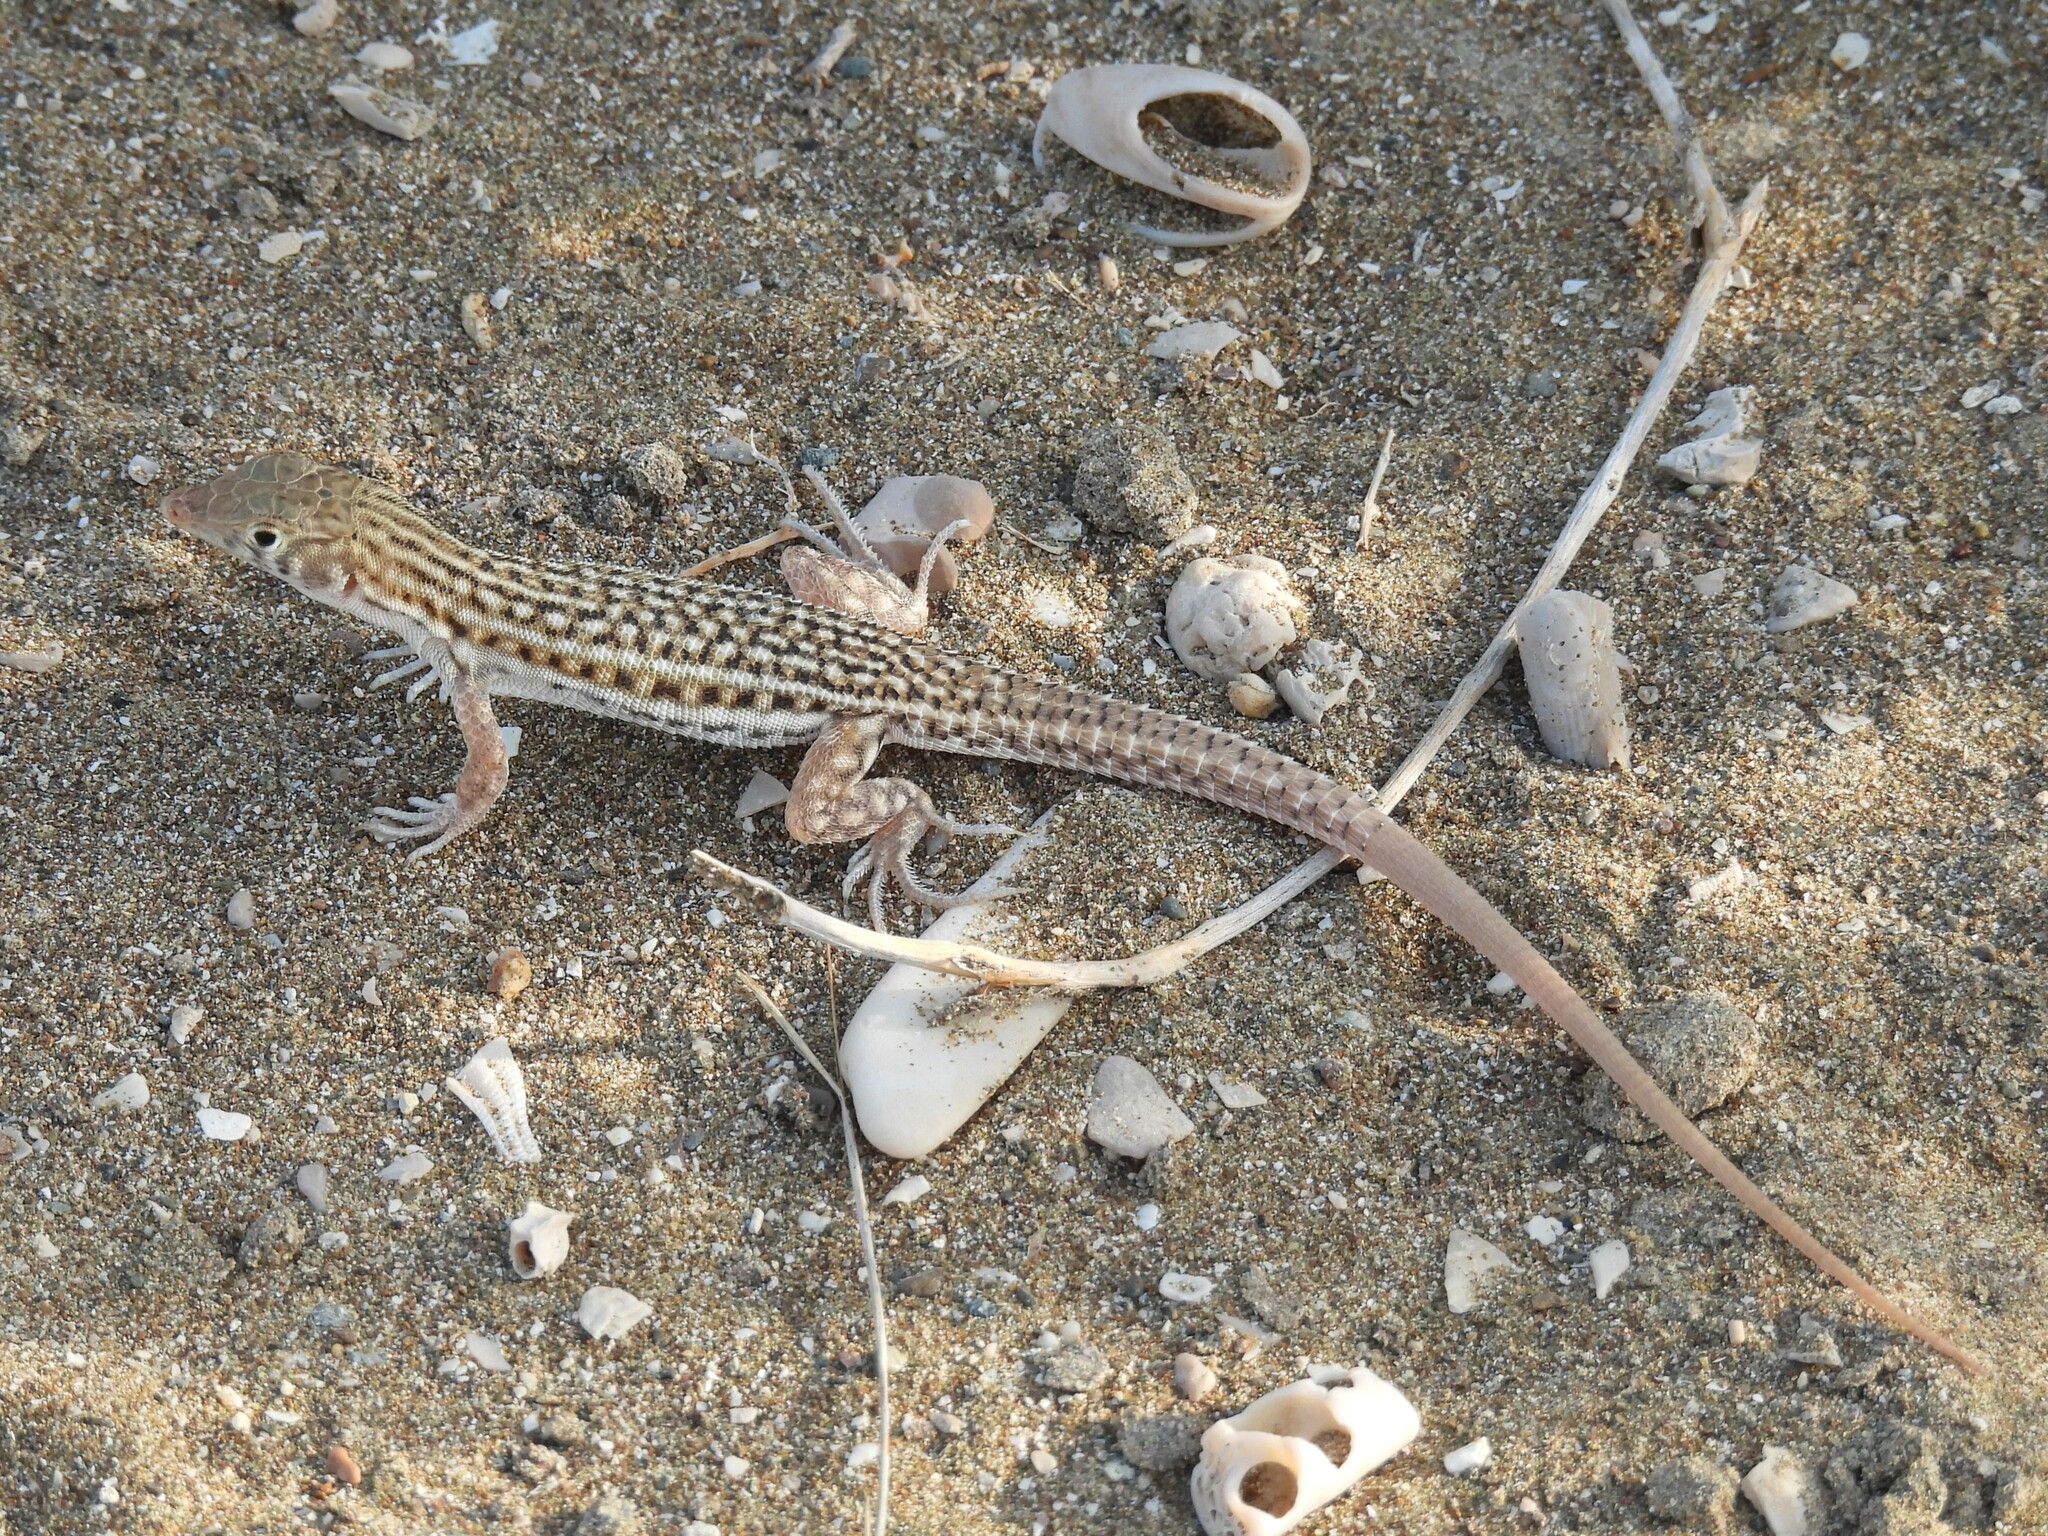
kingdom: Animalia
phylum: Chordata
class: Squamata
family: Lacertidae
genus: Acanthodactylus
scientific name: Acanthodactylus blanfordii
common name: Blanford's fringe-fingered lizard
